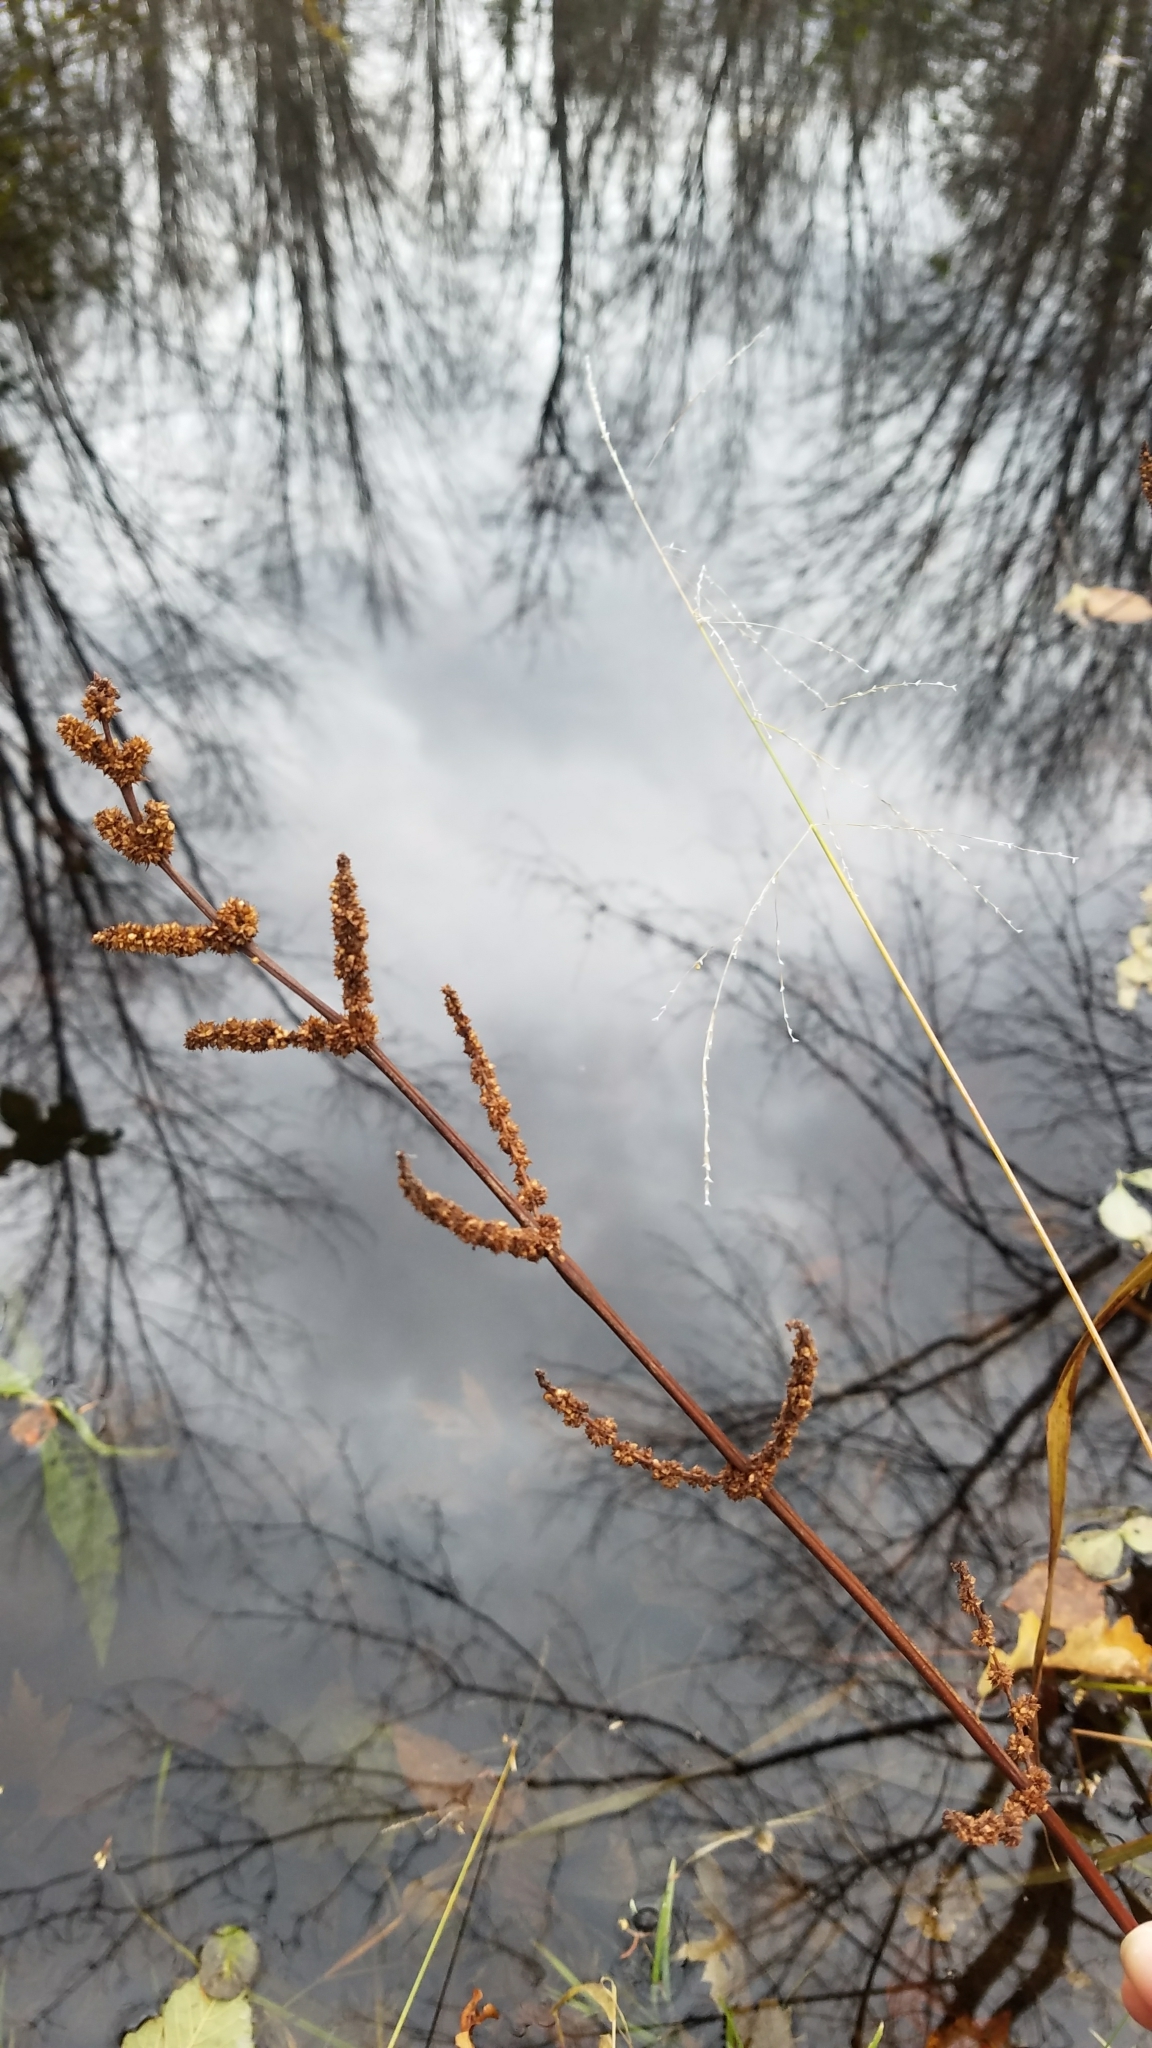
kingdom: Plantae
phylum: Tracheophyta
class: Magnoliopsida
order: Rosales
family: Urticaceae
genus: Boehmeria
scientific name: Boehmeria cylindrica
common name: Bog-hemp
